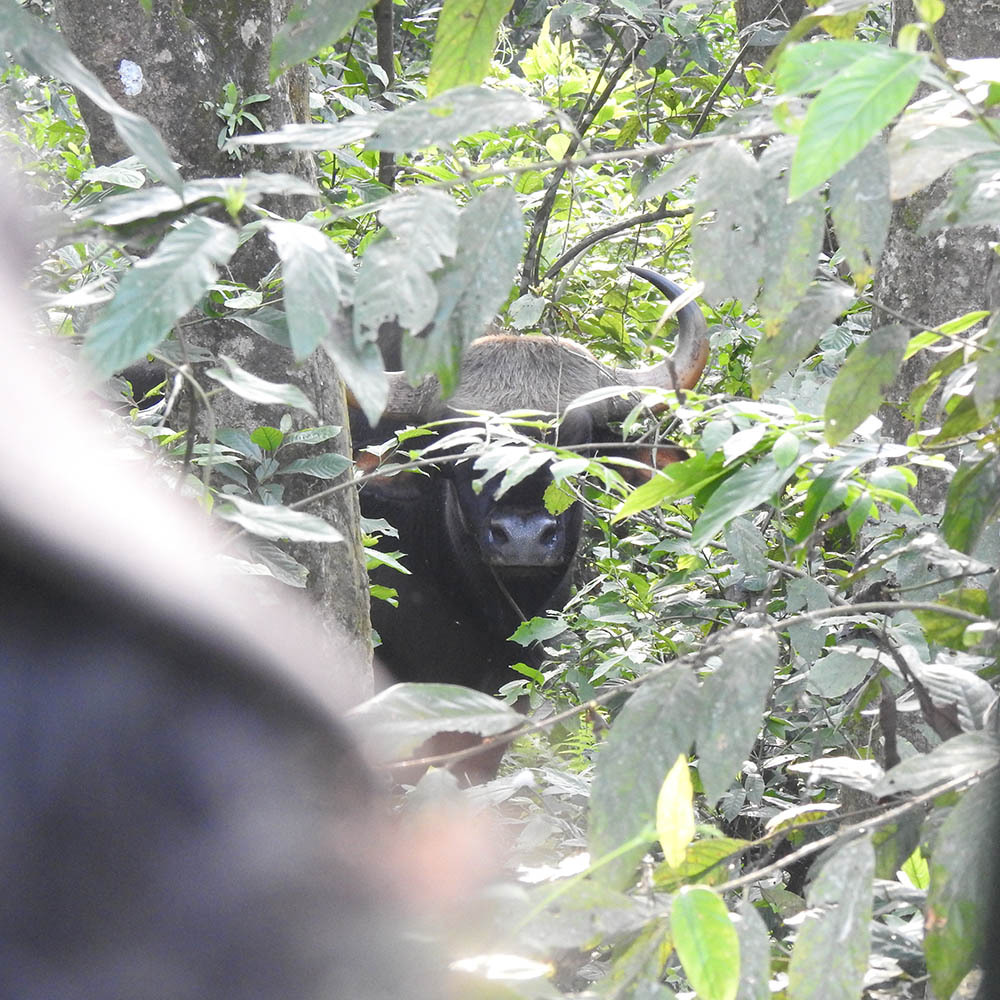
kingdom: Animalia
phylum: Chordata
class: Mammalia
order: Artiodactyla
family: Bovidae
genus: Bos
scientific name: Bos frontalis
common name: Gaur
